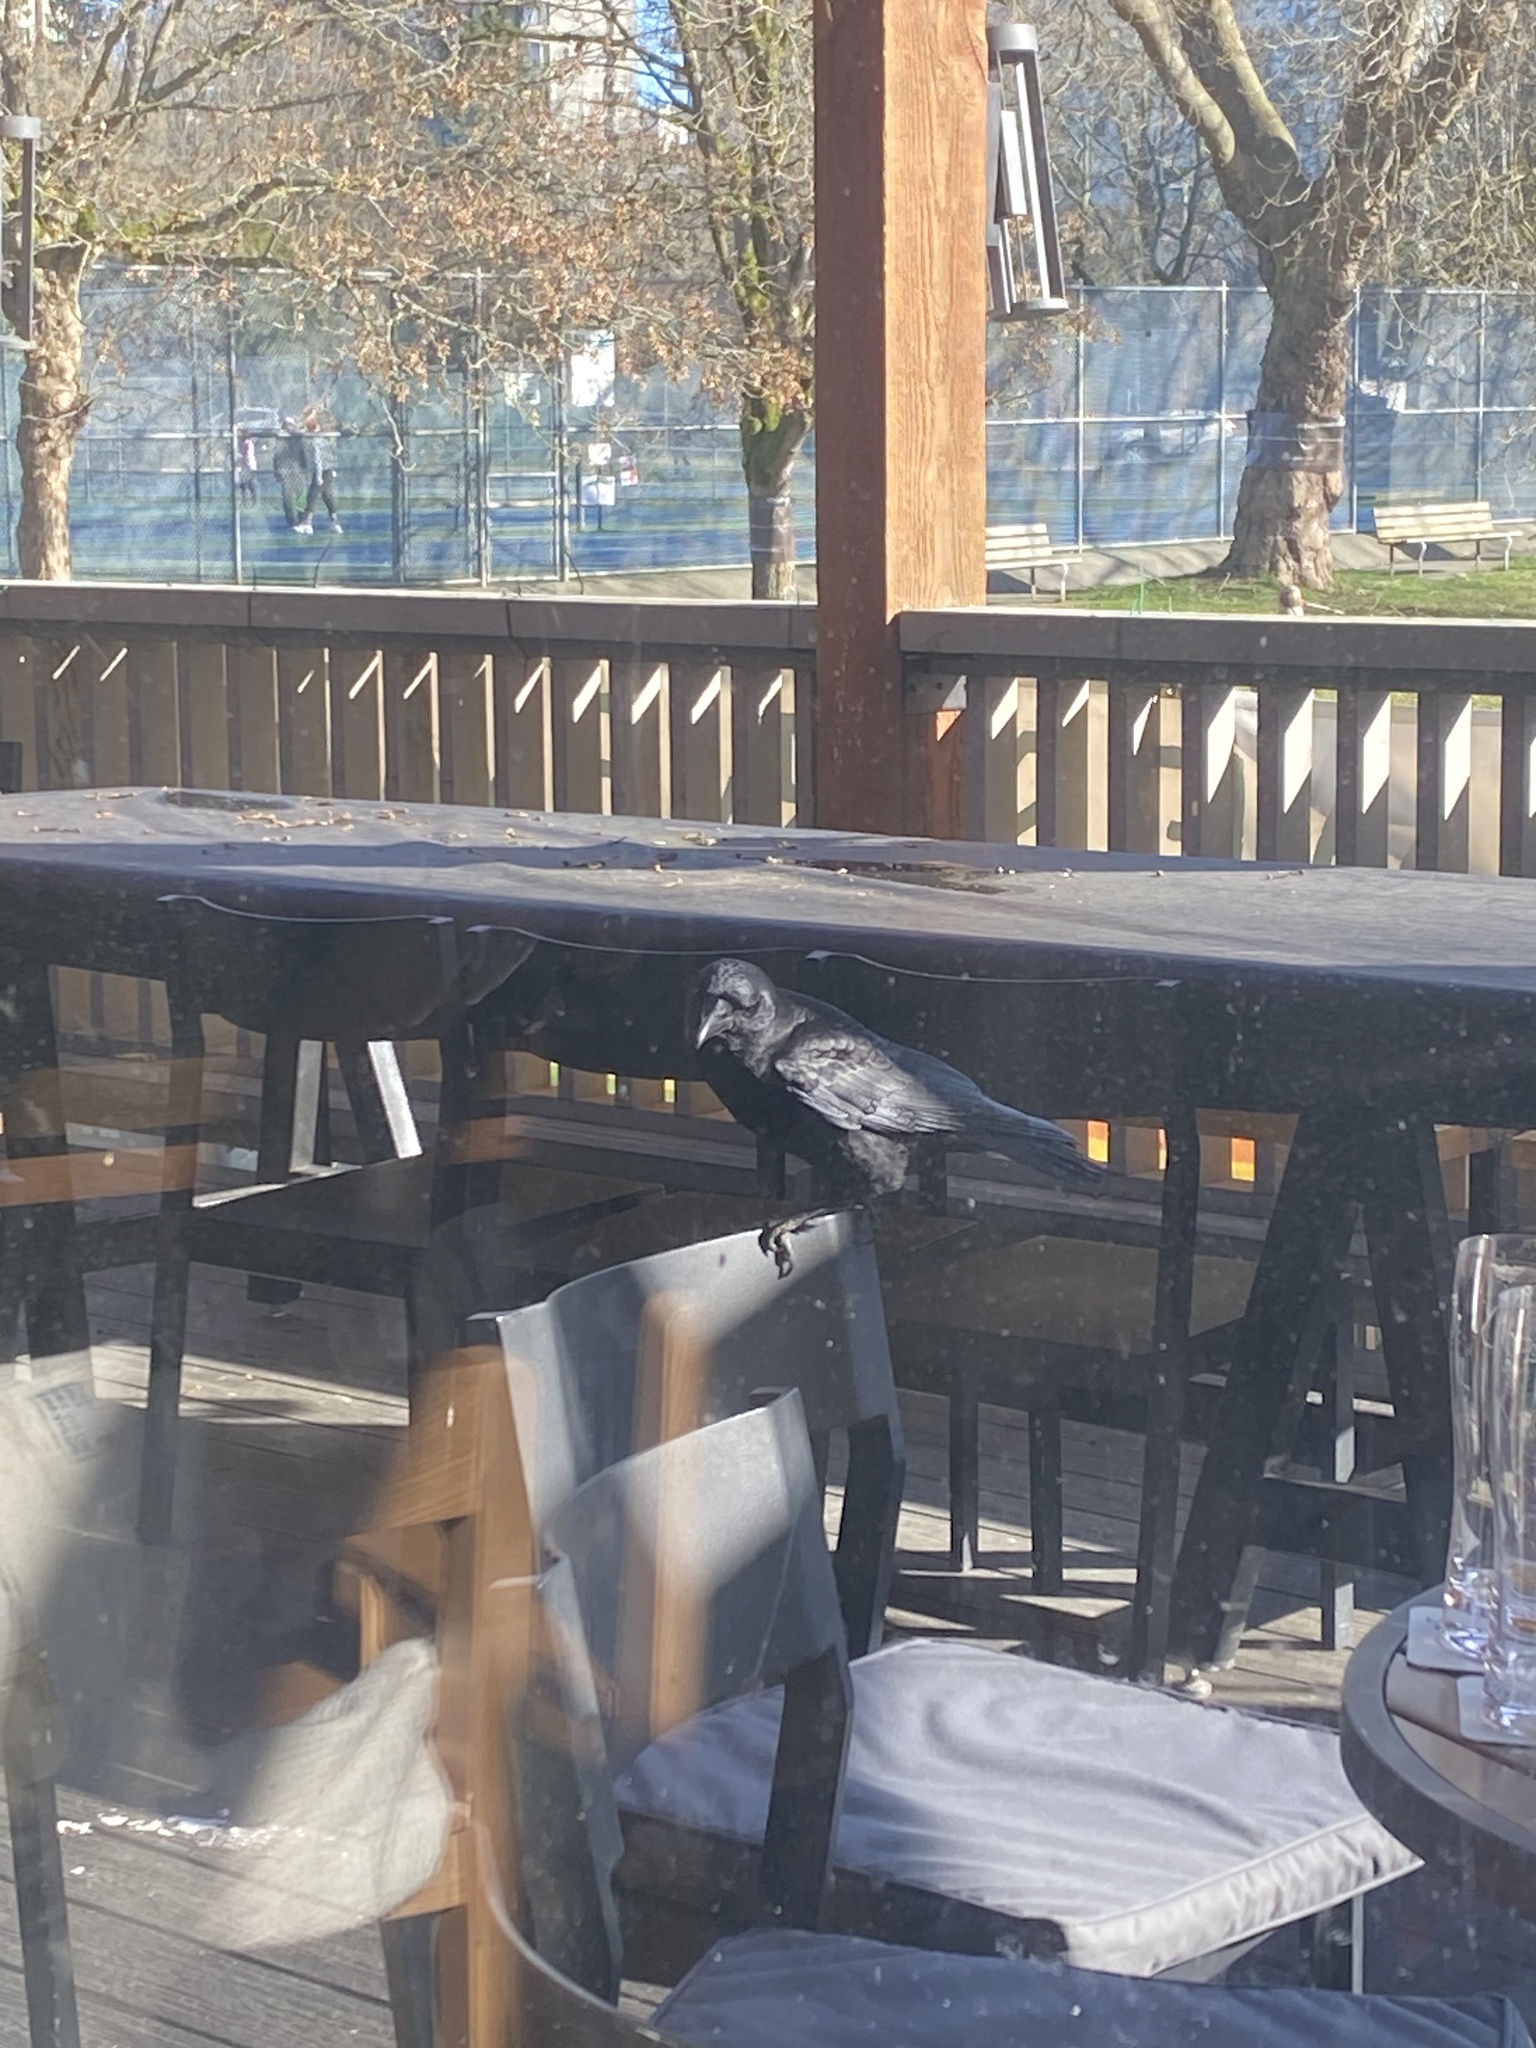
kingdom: Animalia
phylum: Chordata
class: Aves
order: Passeriformes
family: Corvidae
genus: Corvus
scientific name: Corvus brachyrhynchos
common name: American crow
